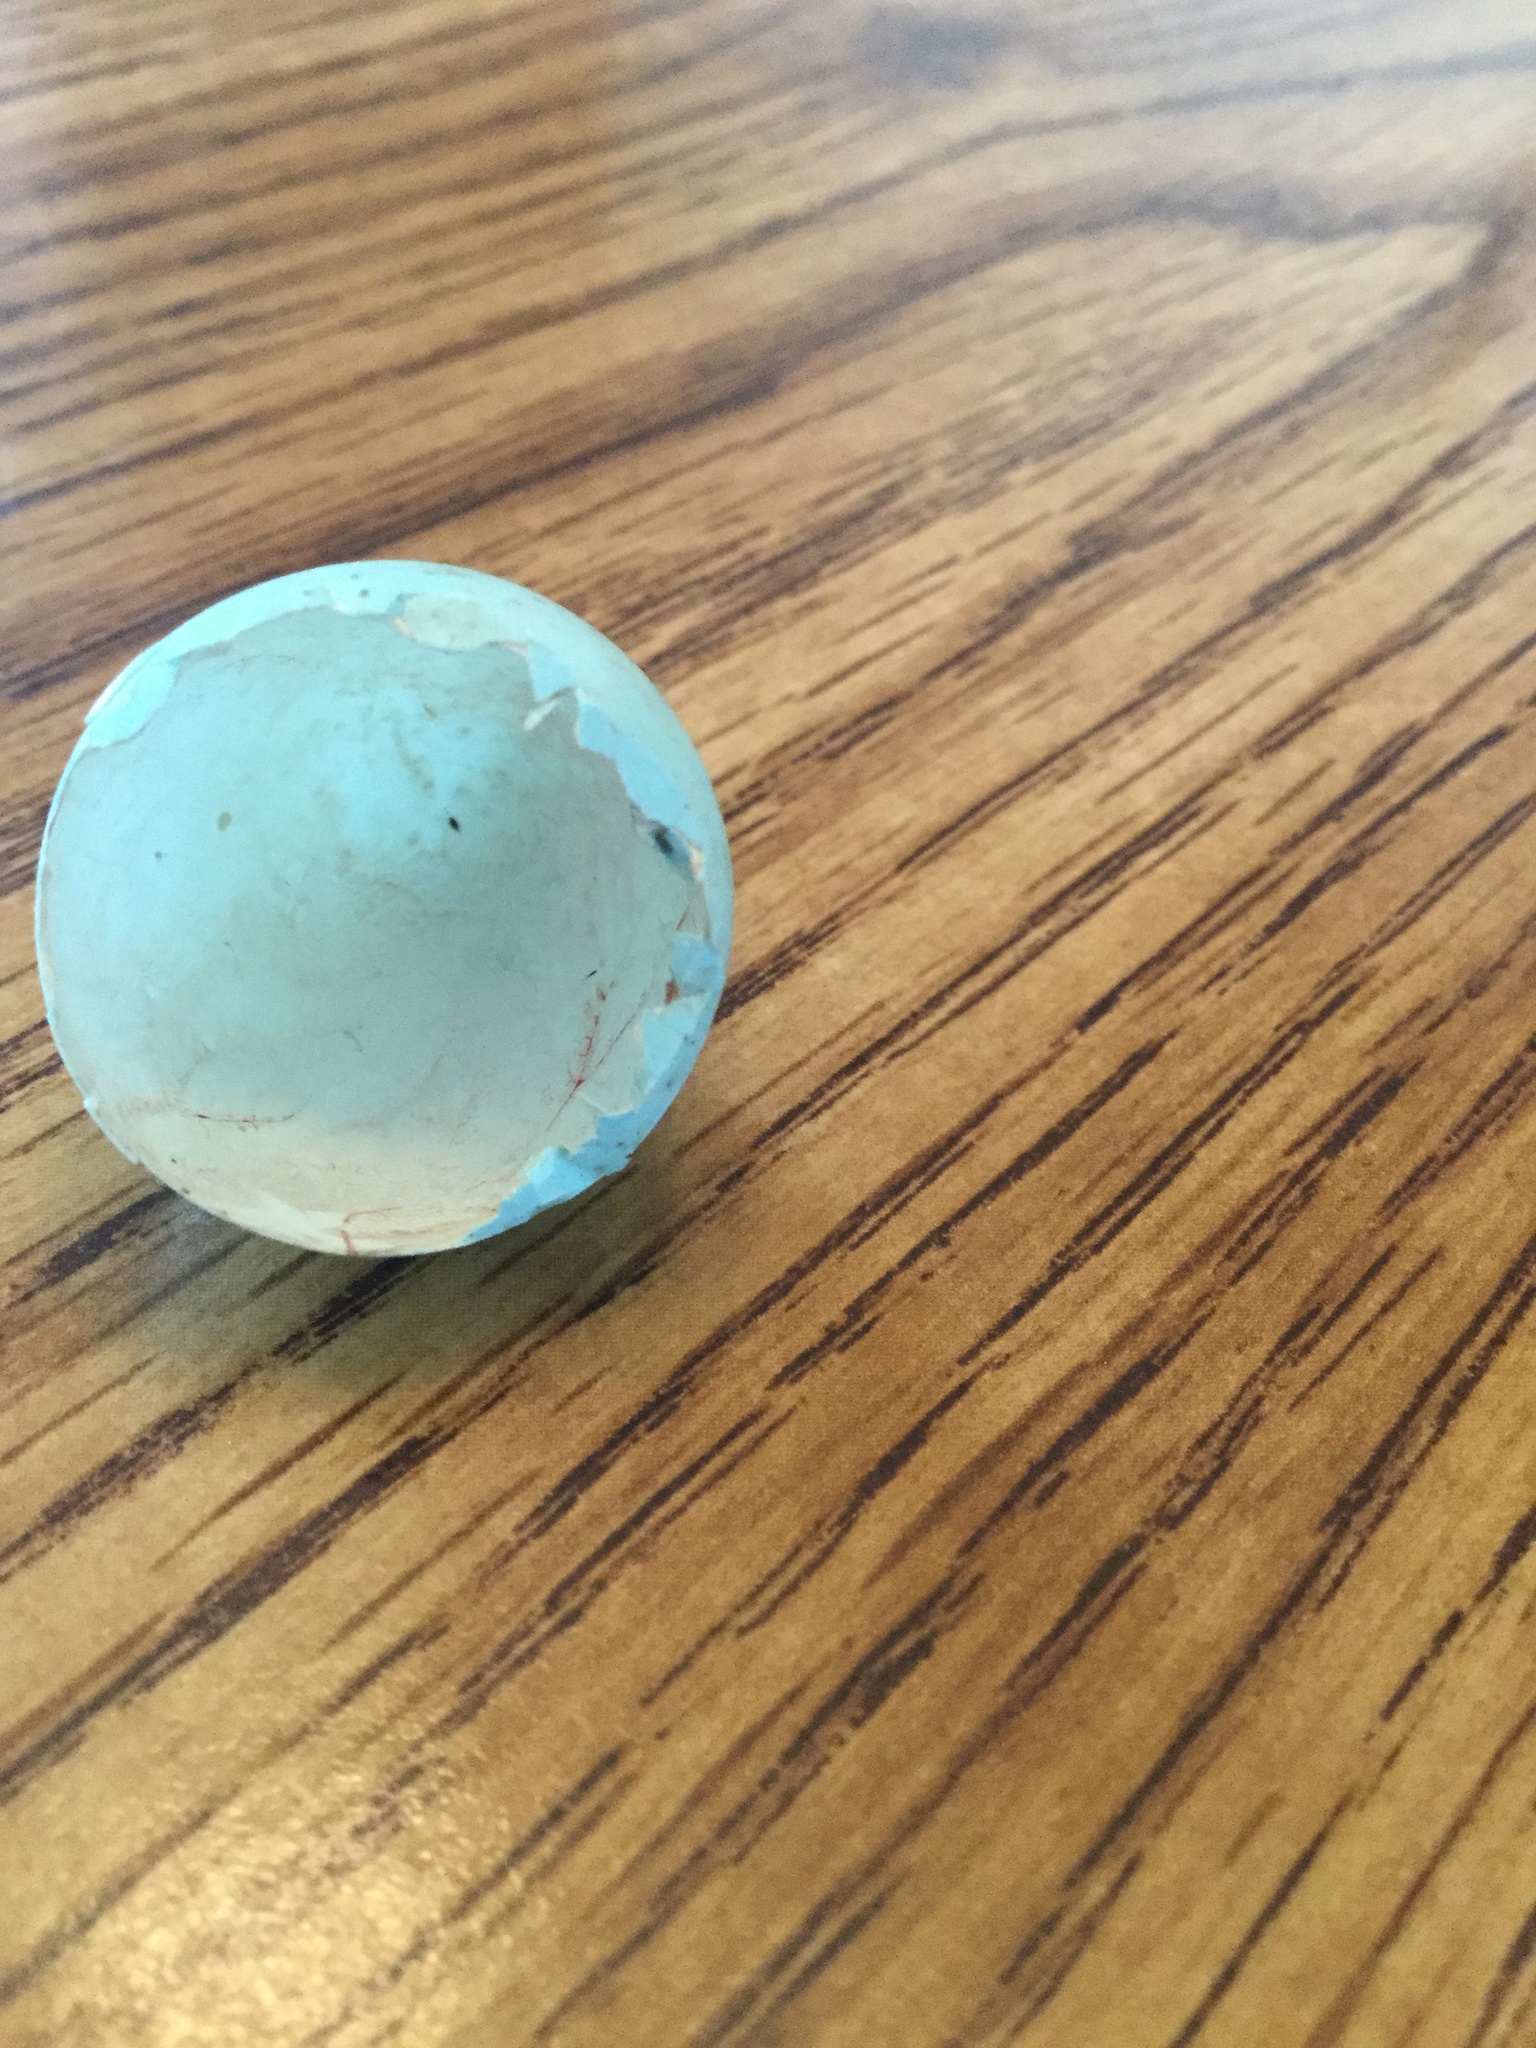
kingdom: Animalia
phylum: Chordata
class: Aves
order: Passeriformes
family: Turdidae
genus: Turdus
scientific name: Turdus migratorius
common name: American robin
